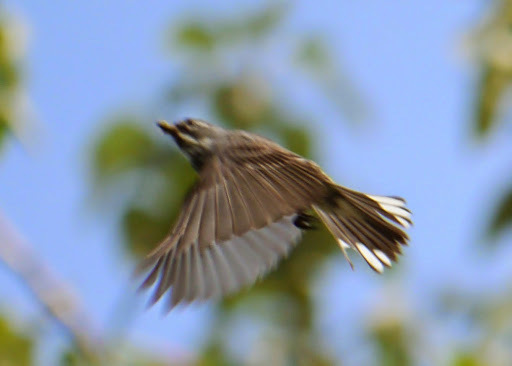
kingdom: Animalia
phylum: Chordata
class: Aves
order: Passeriformes
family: Parulidae
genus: Setophaga
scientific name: Setophaga coronata
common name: Myrtle warbler
